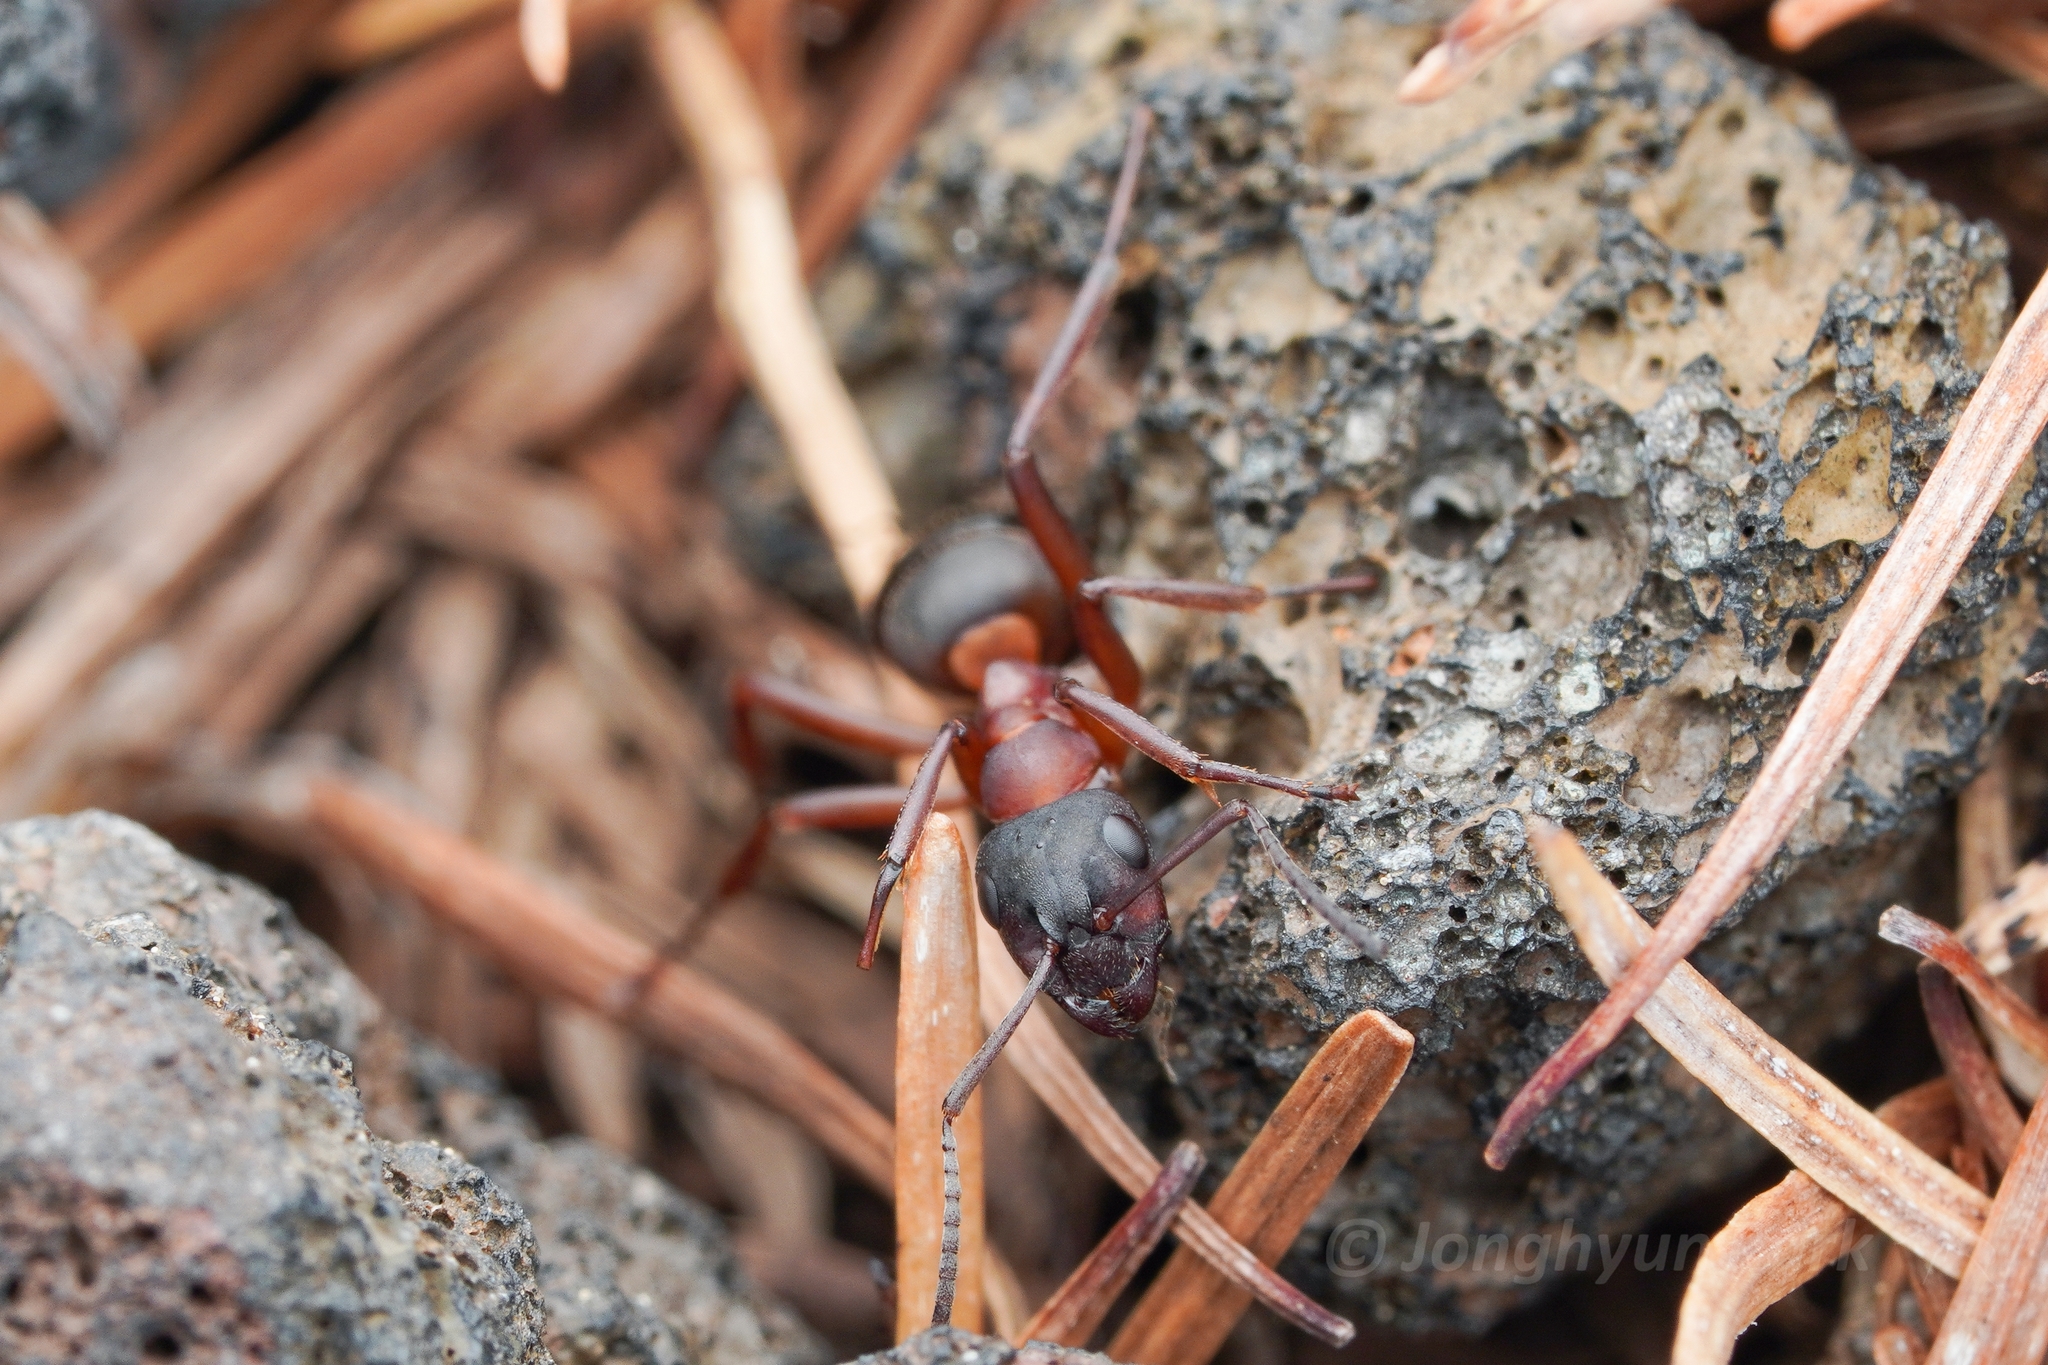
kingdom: Animalia
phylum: Arthropoda
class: Insecta
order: Hymenoptera
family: Formicidae
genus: Formica
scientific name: Formica sanguinea
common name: Blood-red ant
